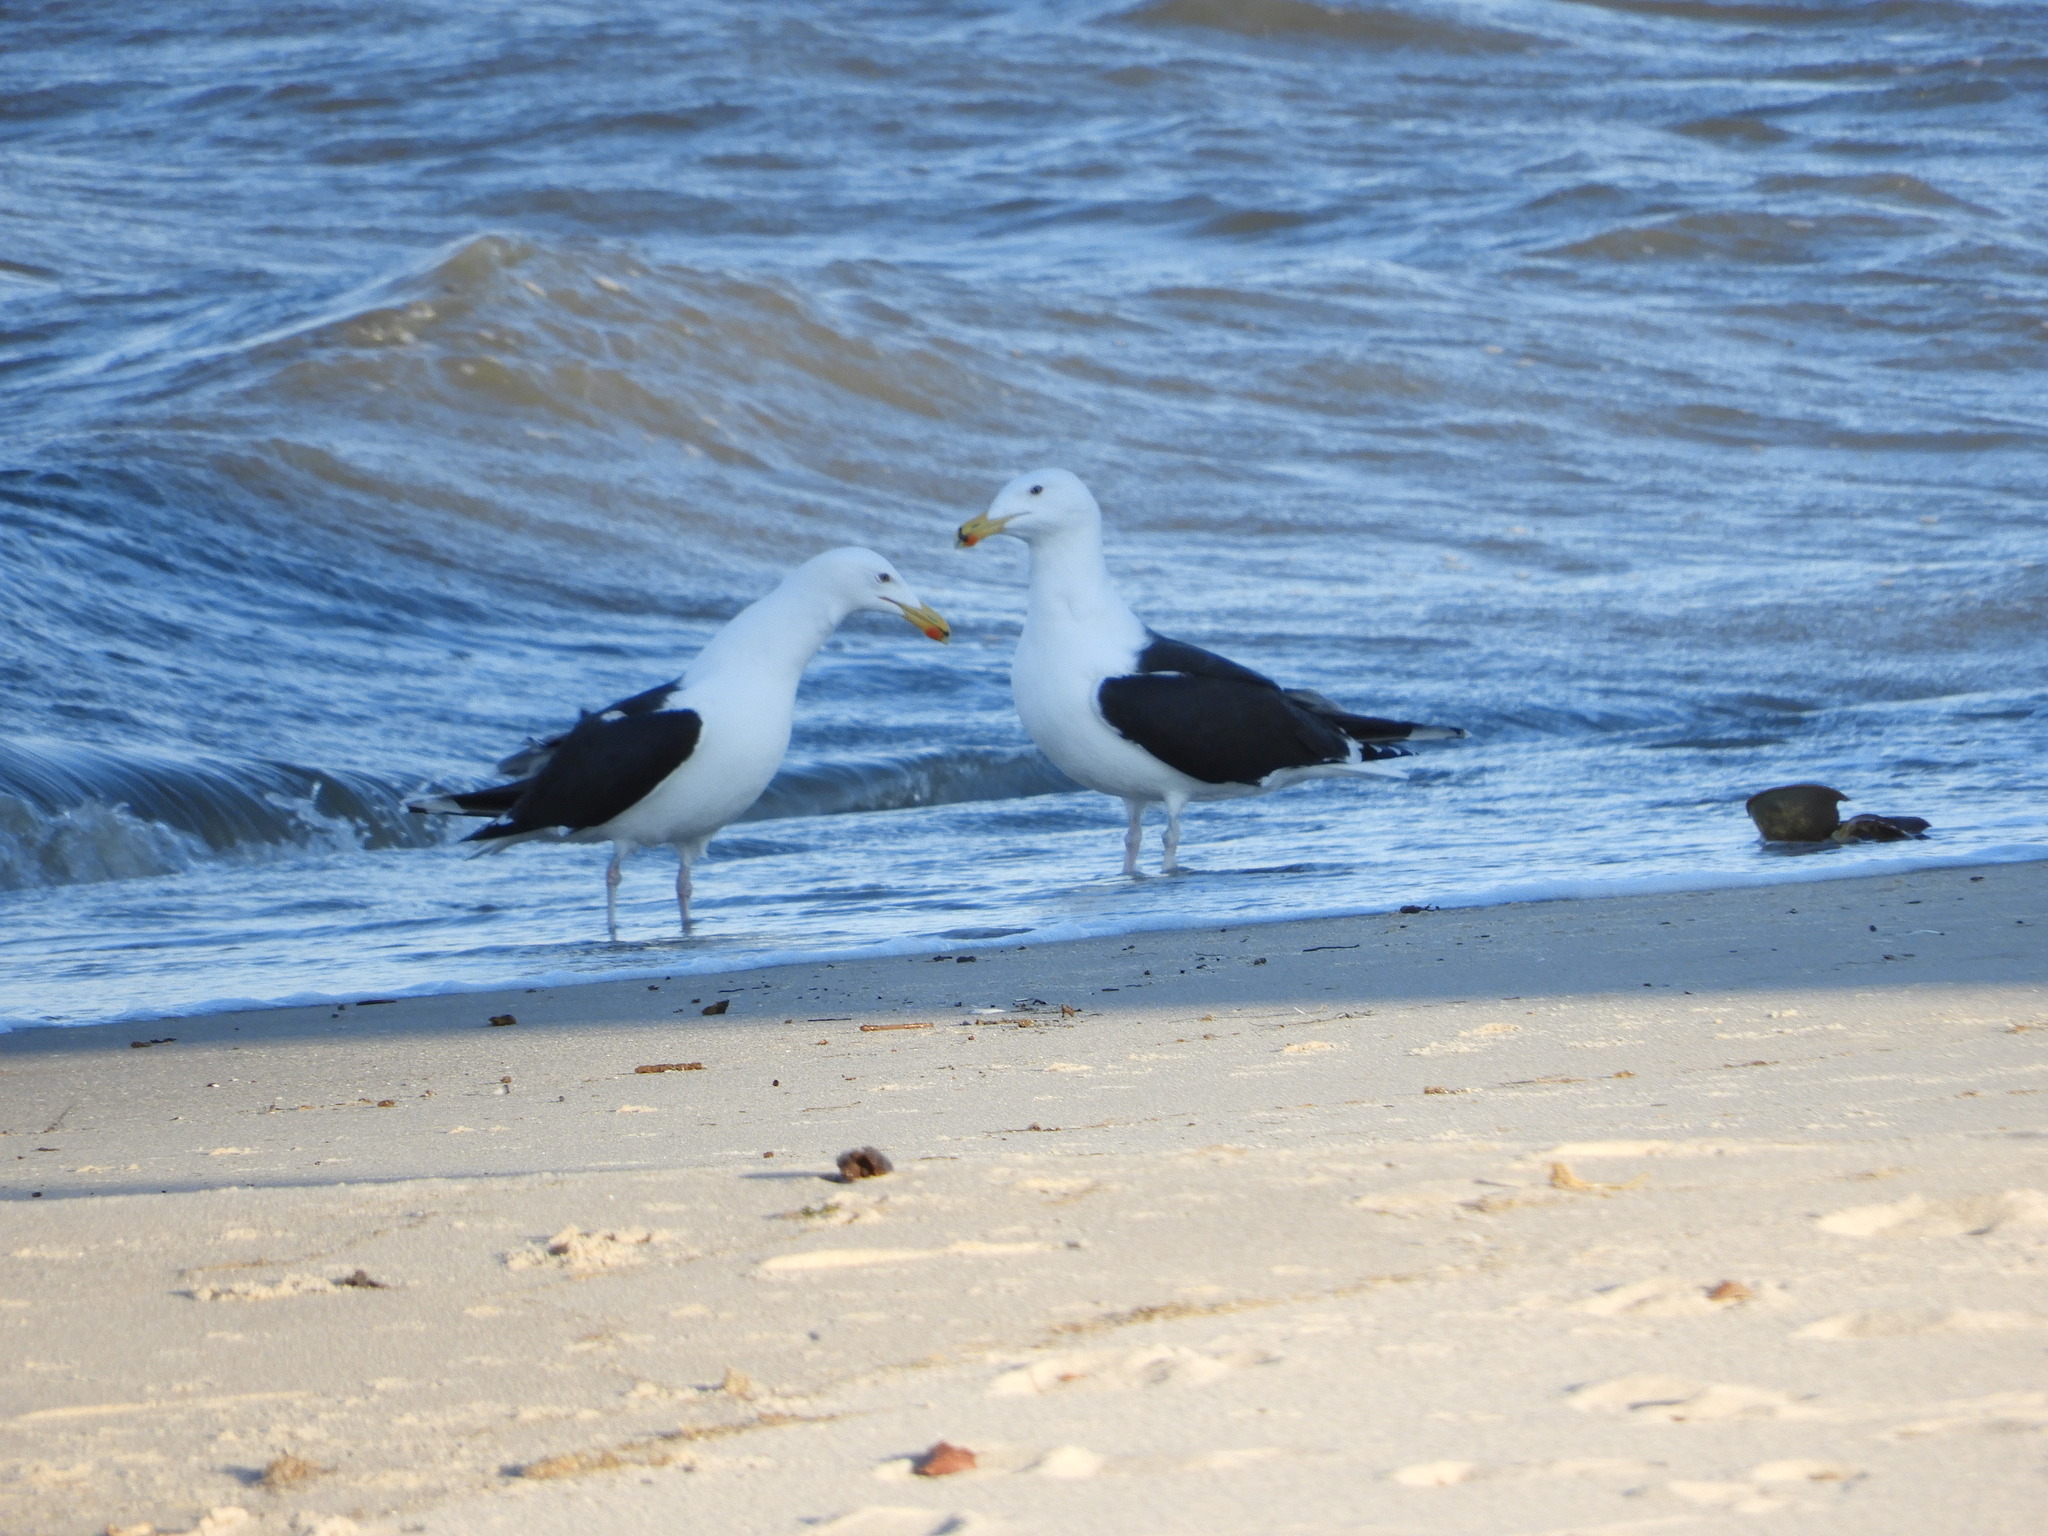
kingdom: Animalia
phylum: Chordata
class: Aves
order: Charadriiformes
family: Laridae
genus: Larus
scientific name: Larus marinus
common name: Great black-backed gull
